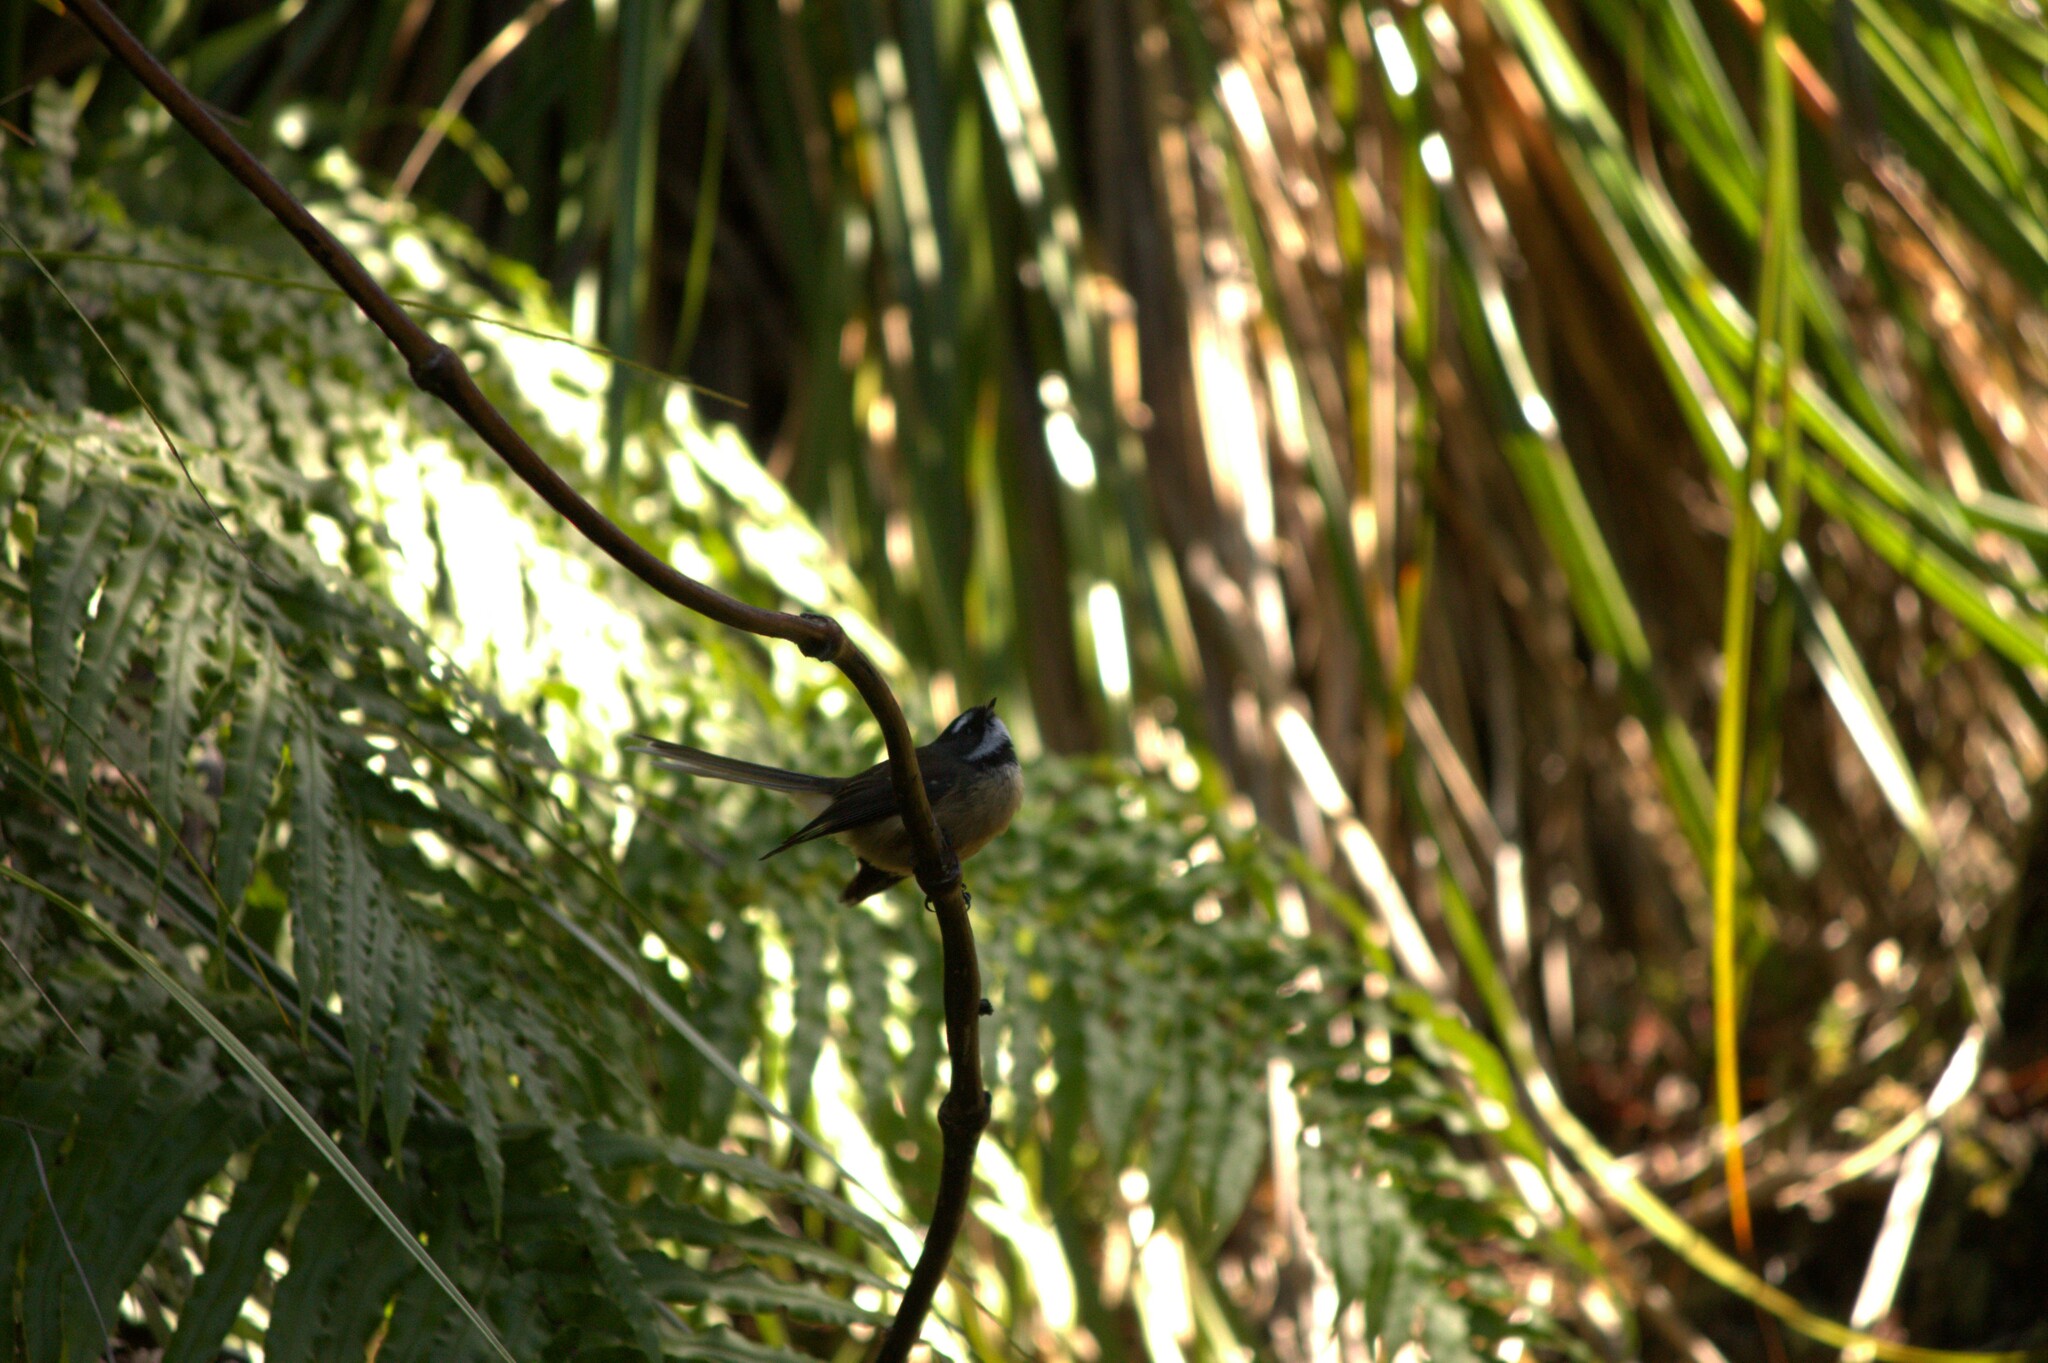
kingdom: Animalia
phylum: Chordata
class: Aves
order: Passeriformes
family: Rhipiduridae
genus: Rhipidura
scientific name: Rhipidura fuliginosa
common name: New zealand fantail
